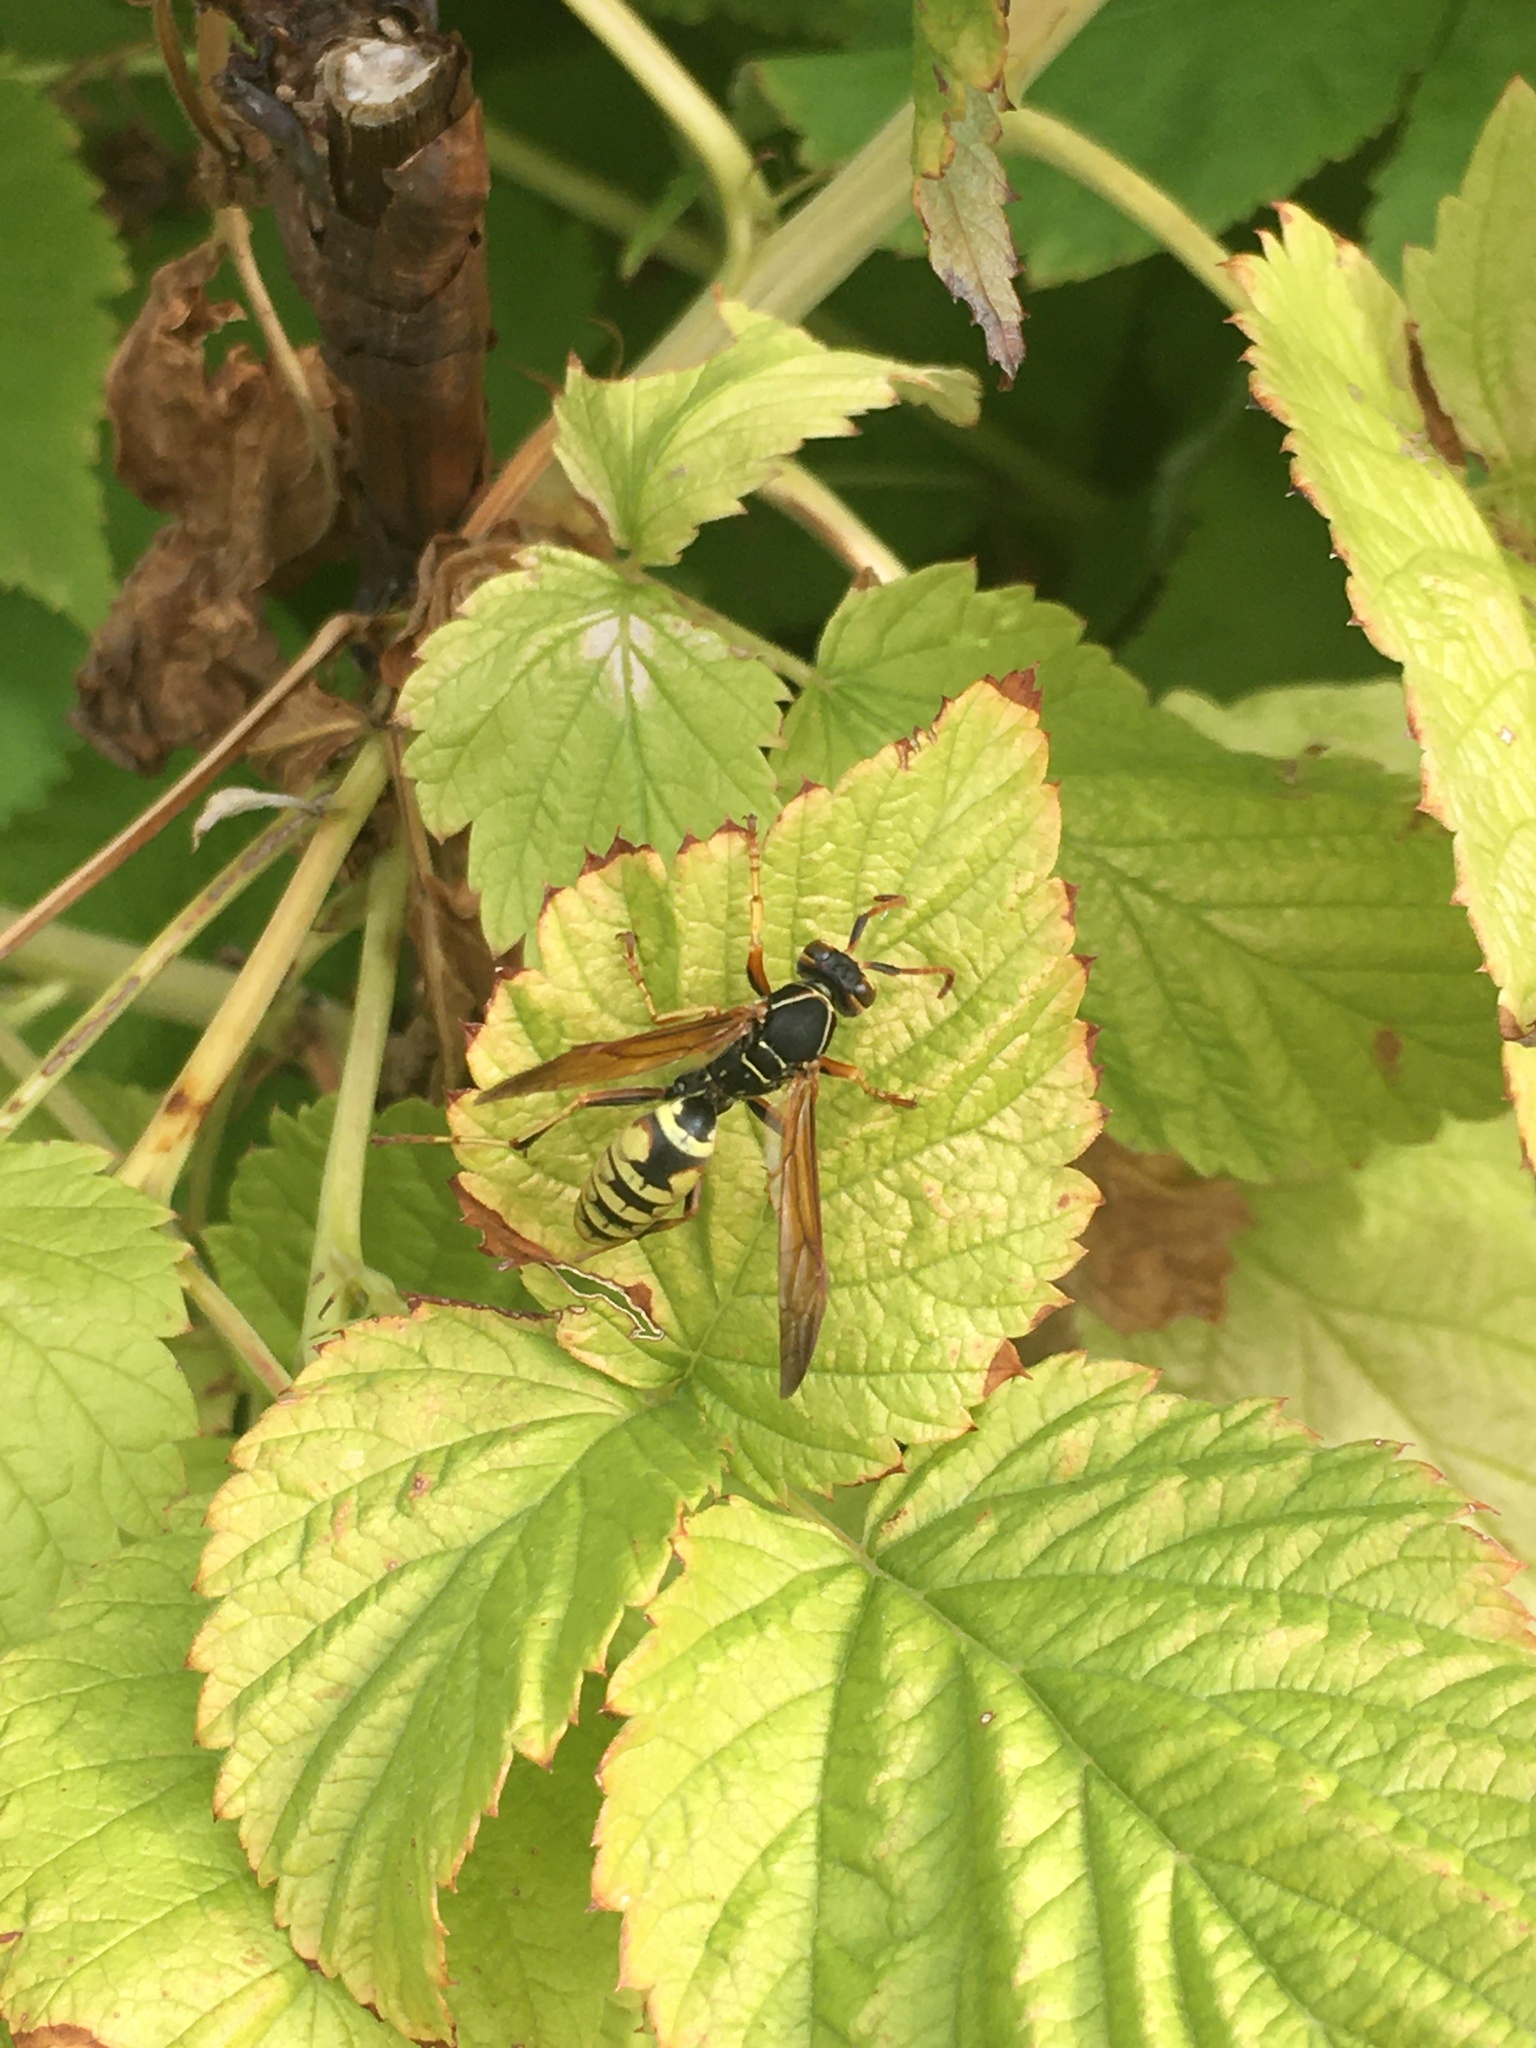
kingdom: Animalia
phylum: Arthropoda
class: Insecta
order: Hymenoptera
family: Eumenidae
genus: Polistes
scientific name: Polistes aurifer
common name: Paper wasp
